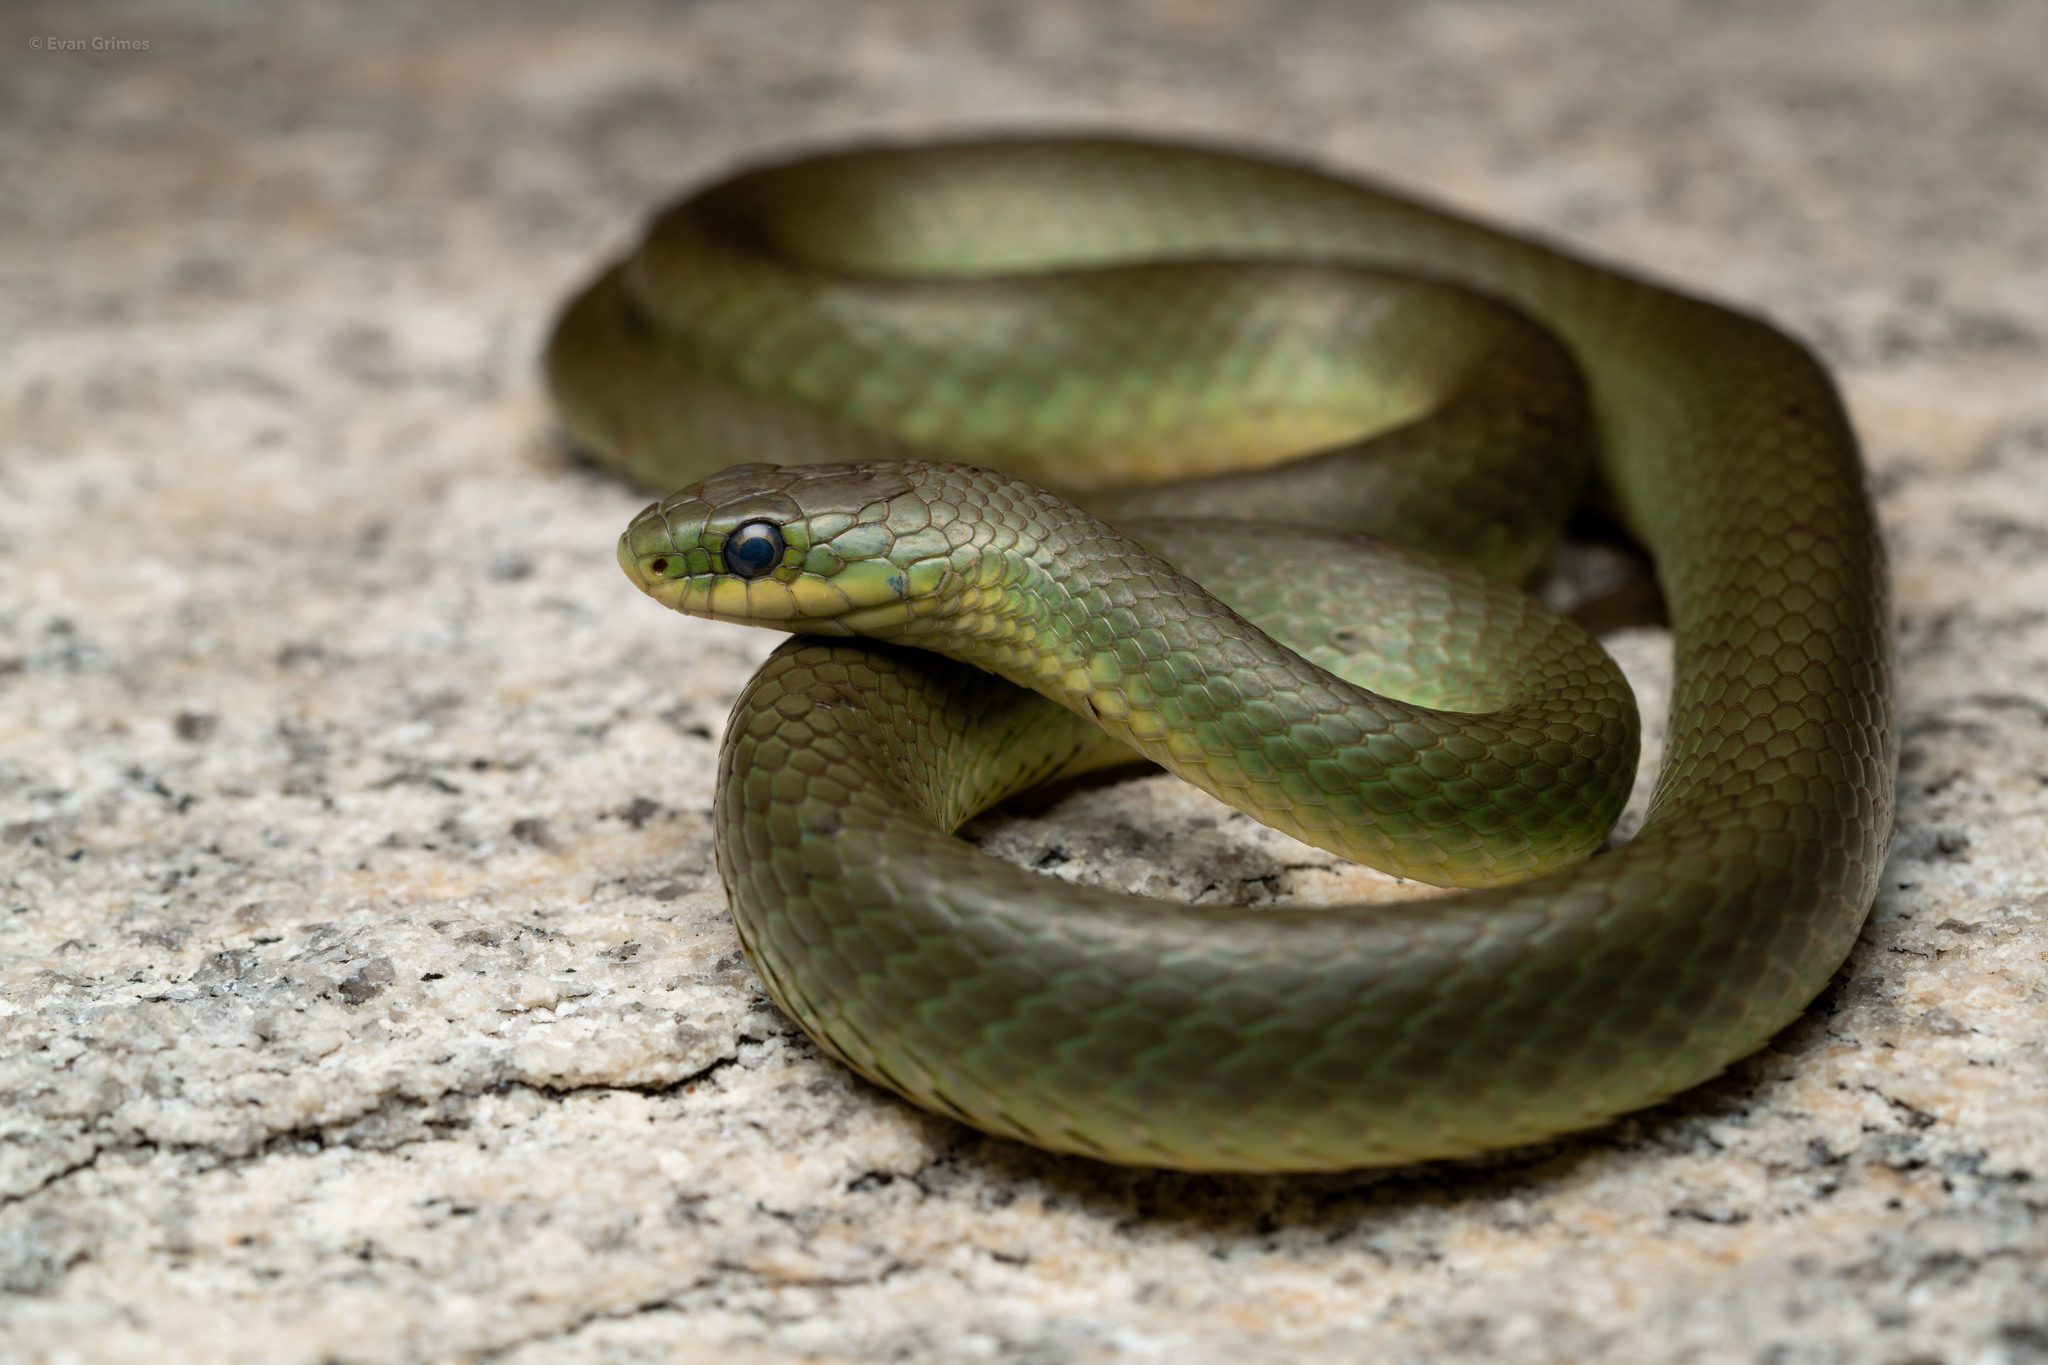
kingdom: Animalia
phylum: Chordata
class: Squamata
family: Colubridae
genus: Opheodrys
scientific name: Opheodrys vernalis
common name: Smooth green snake
